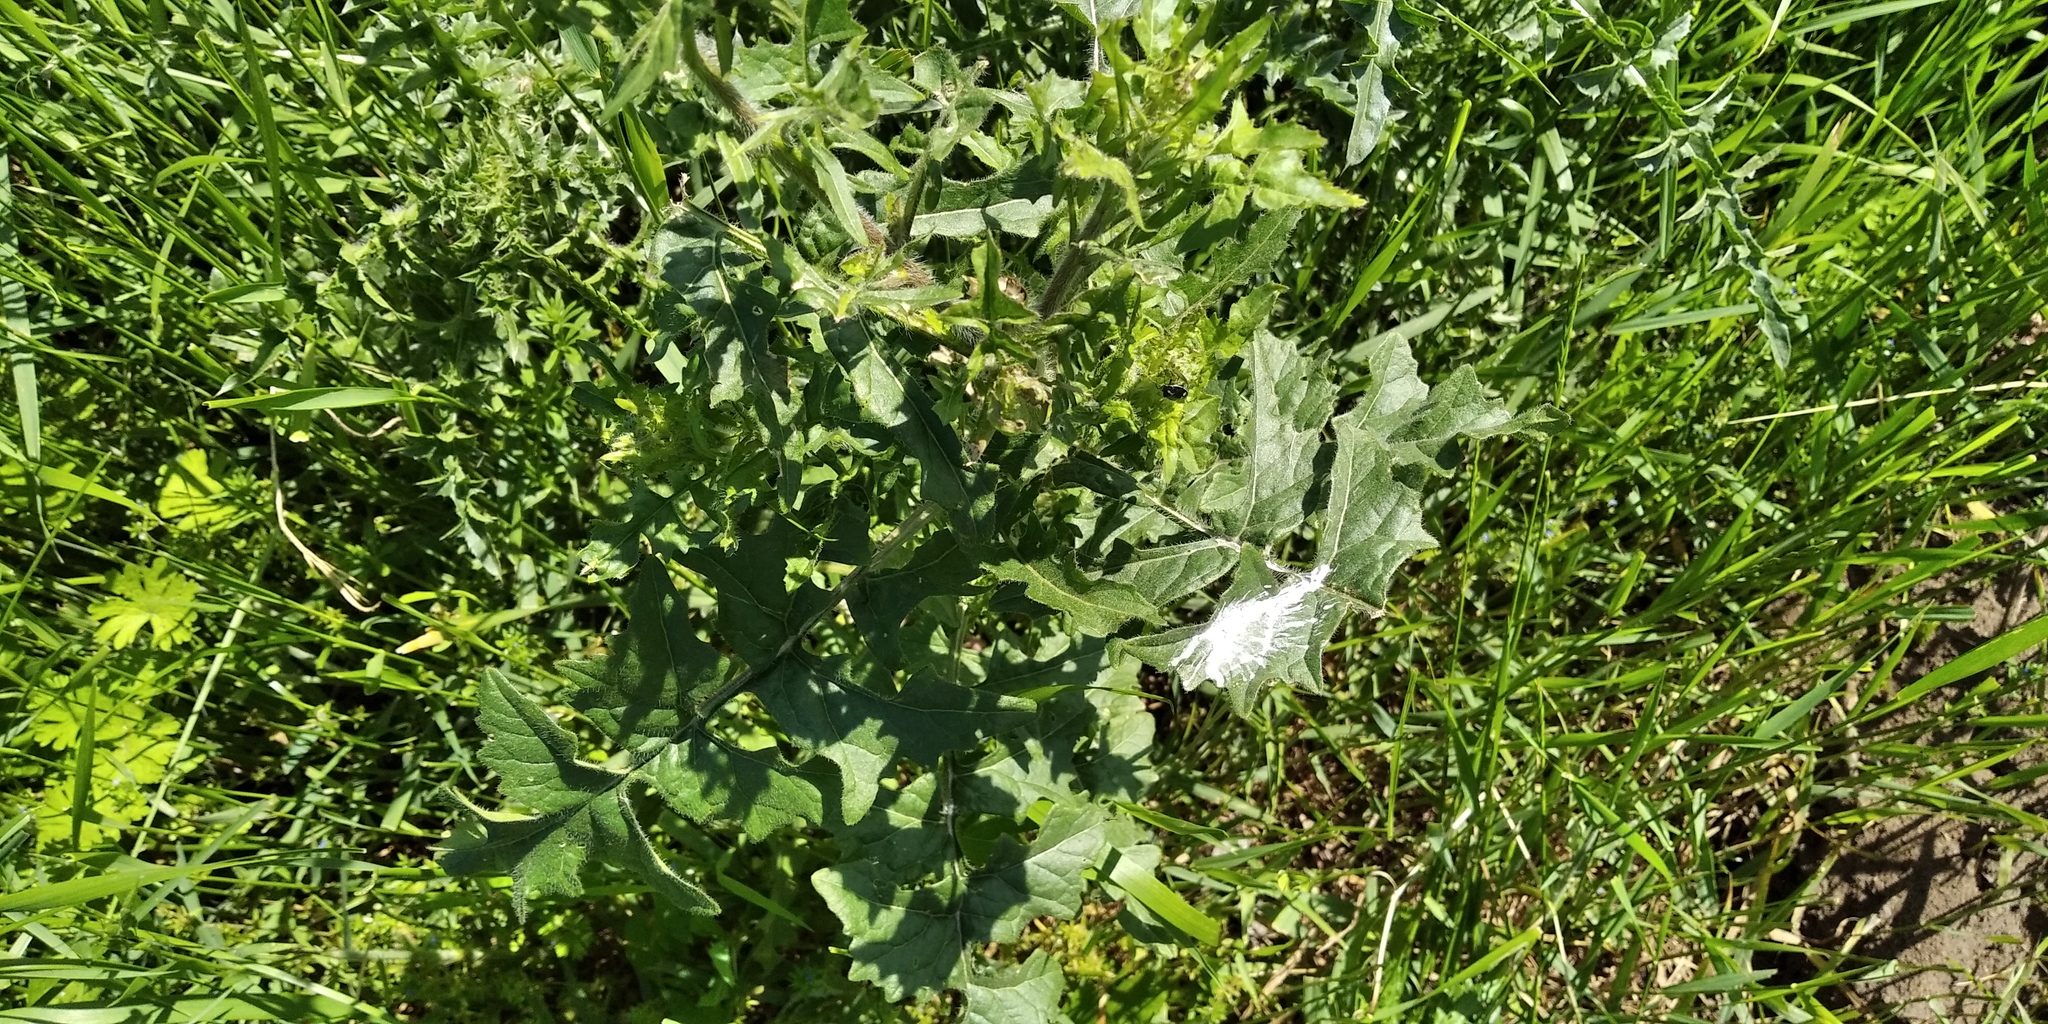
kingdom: Plantae
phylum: Tracheophyta
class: Magnoliopsida
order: Brassicales
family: Brassicaceae
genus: Sisymbrium
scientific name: Sisymbrium loeselii
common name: False london-rocket
